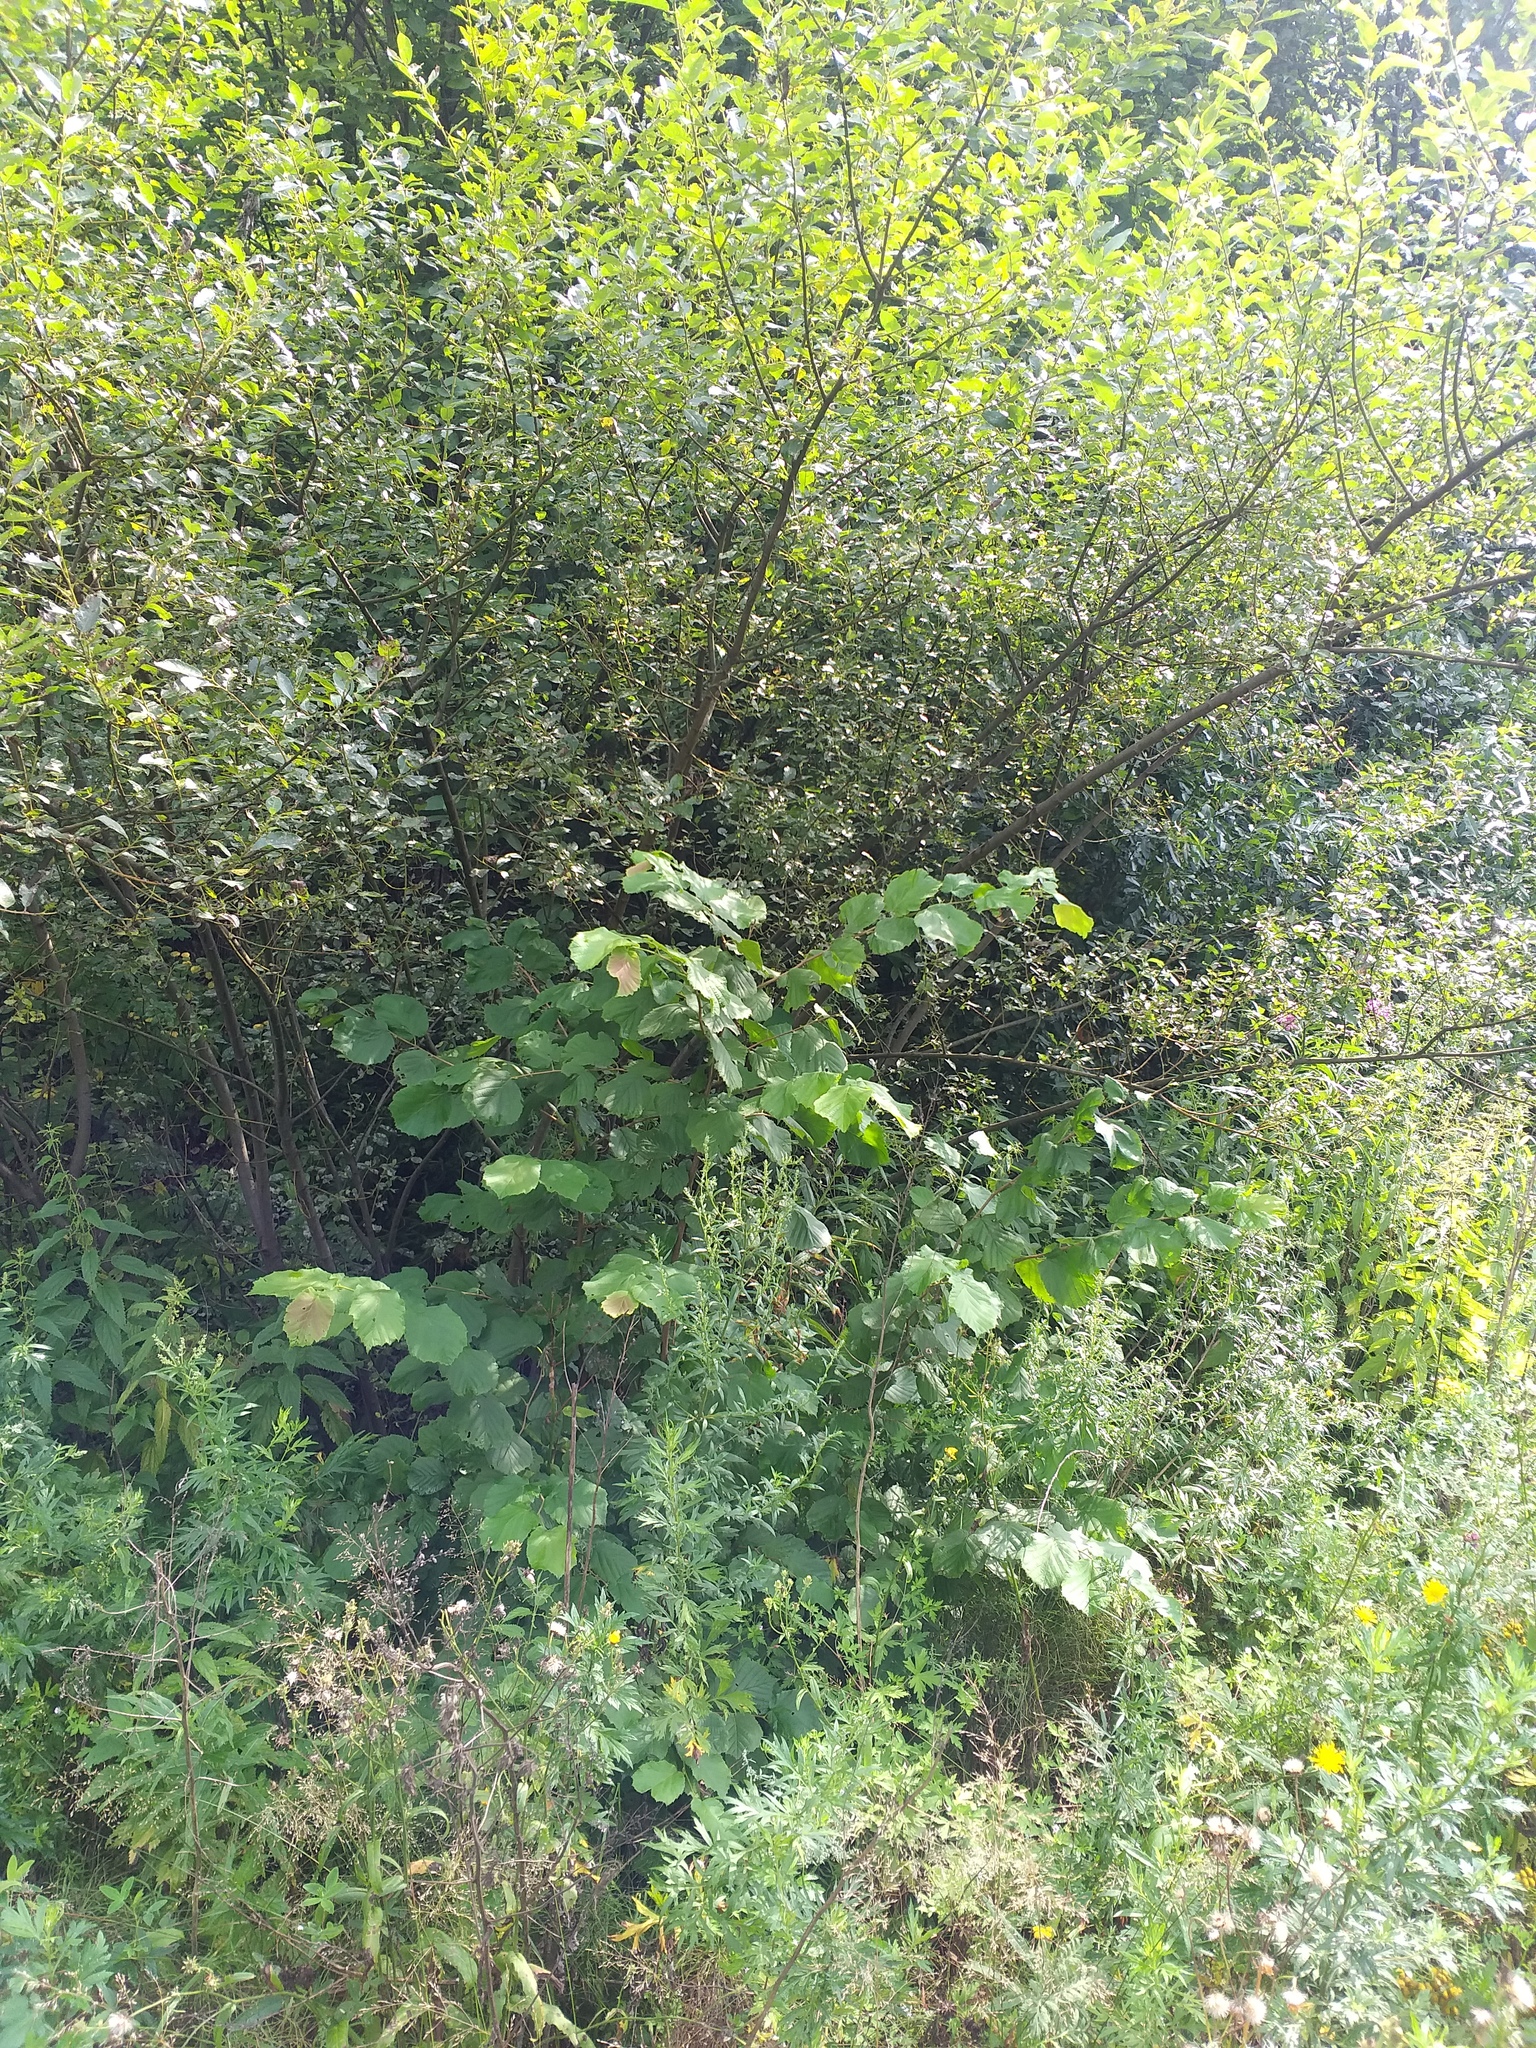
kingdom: Plantae
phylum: Tracheophyta
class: Magnoliopsida
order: Fagales
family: Betulaceae
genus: Corylus
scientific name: Corylus avellana
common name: European hazel
